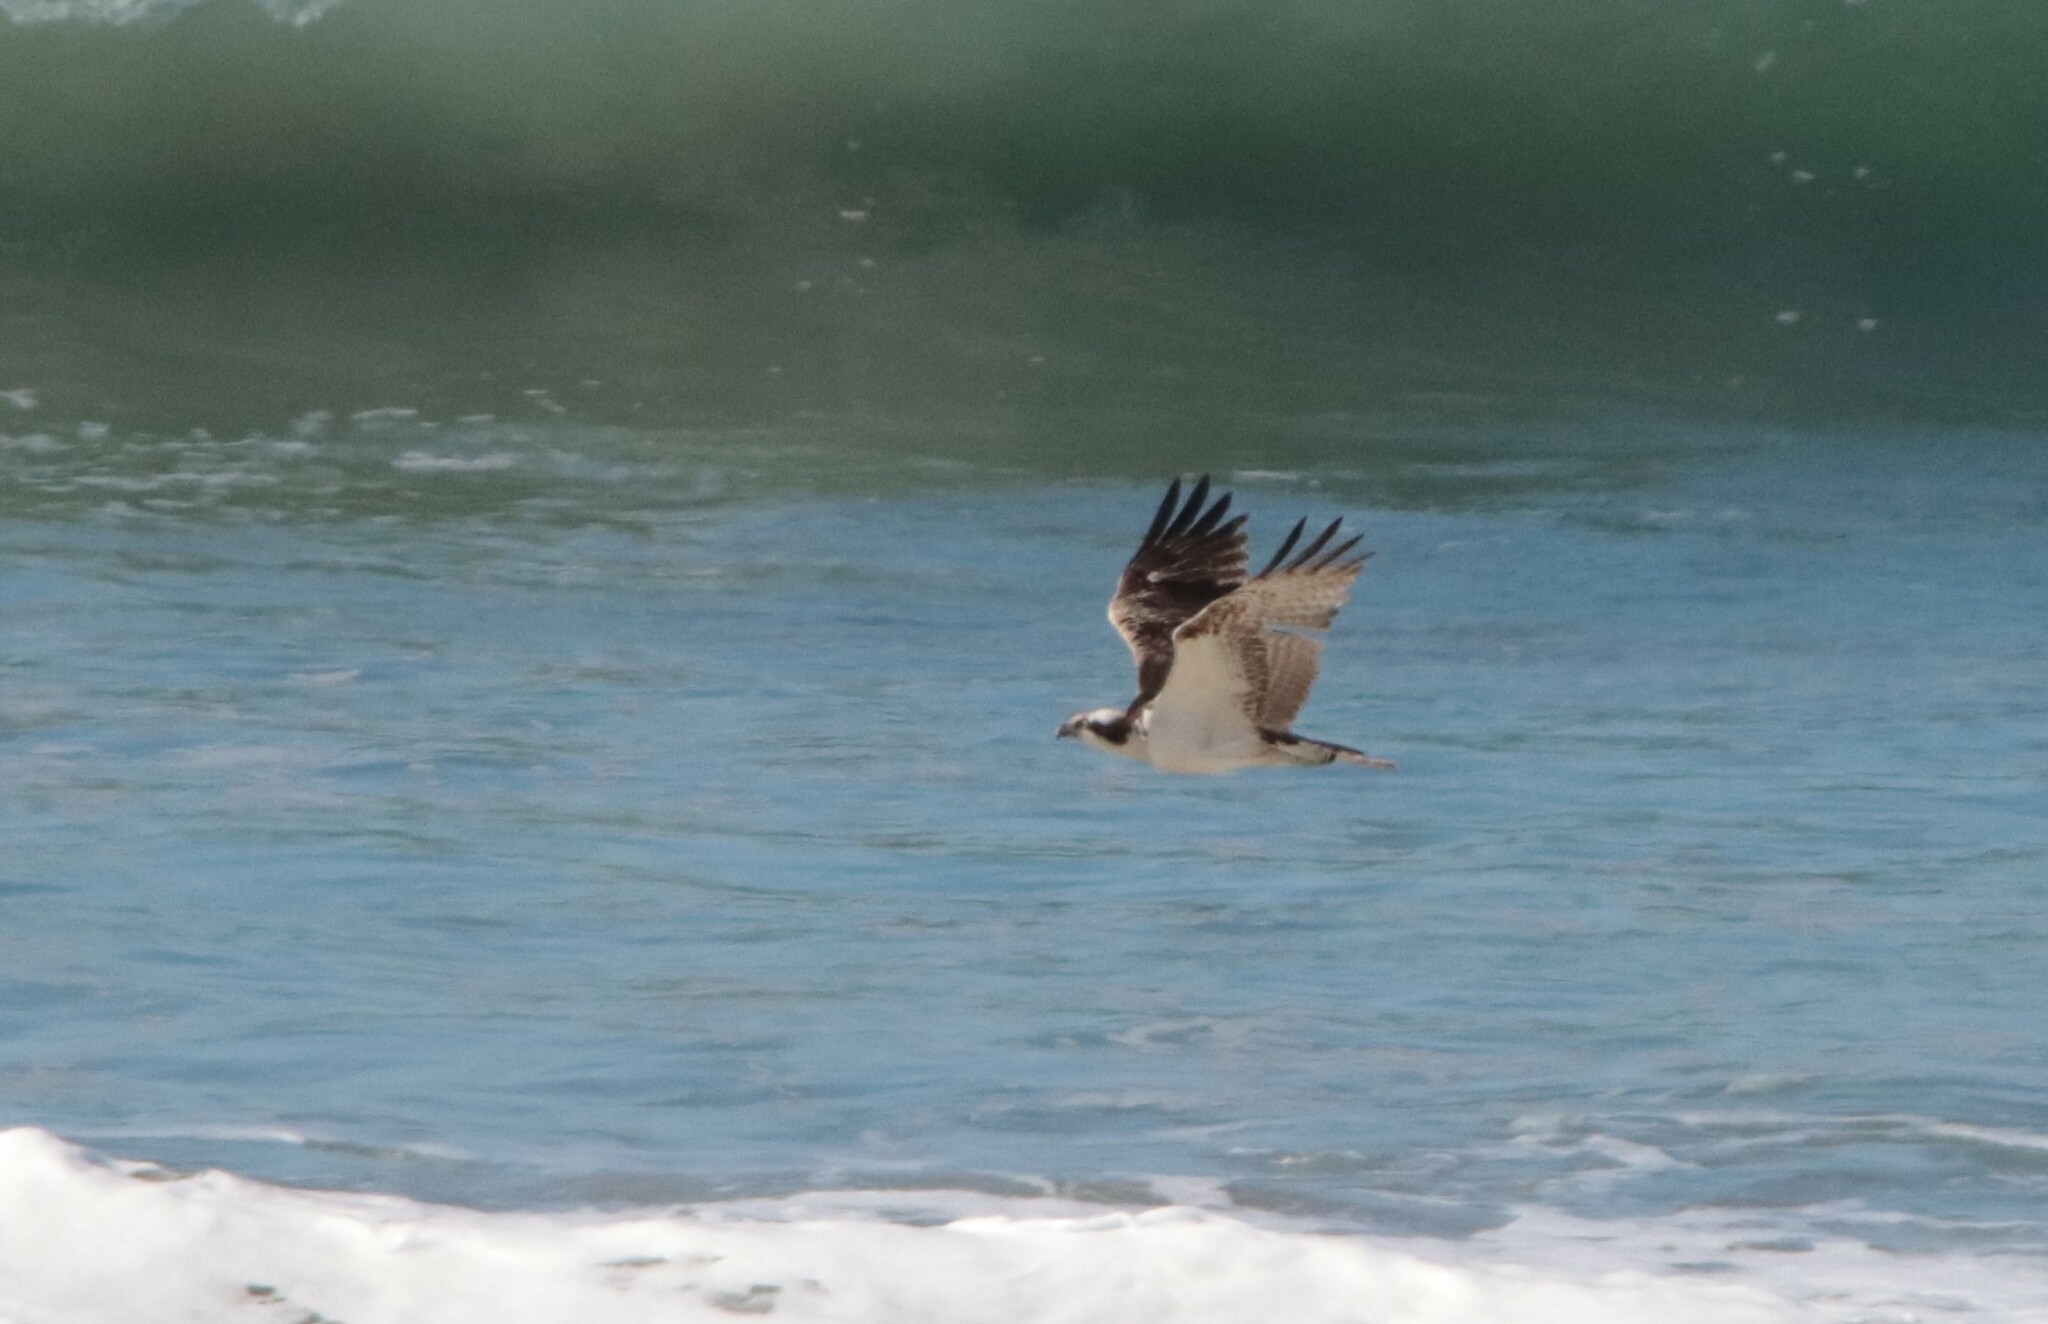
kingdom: Animalia
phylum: Chordata
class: Aves
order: Accipitriformes
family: Pandionidae
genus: Pandion
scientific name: Pandion haliaetus
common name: Osprey
